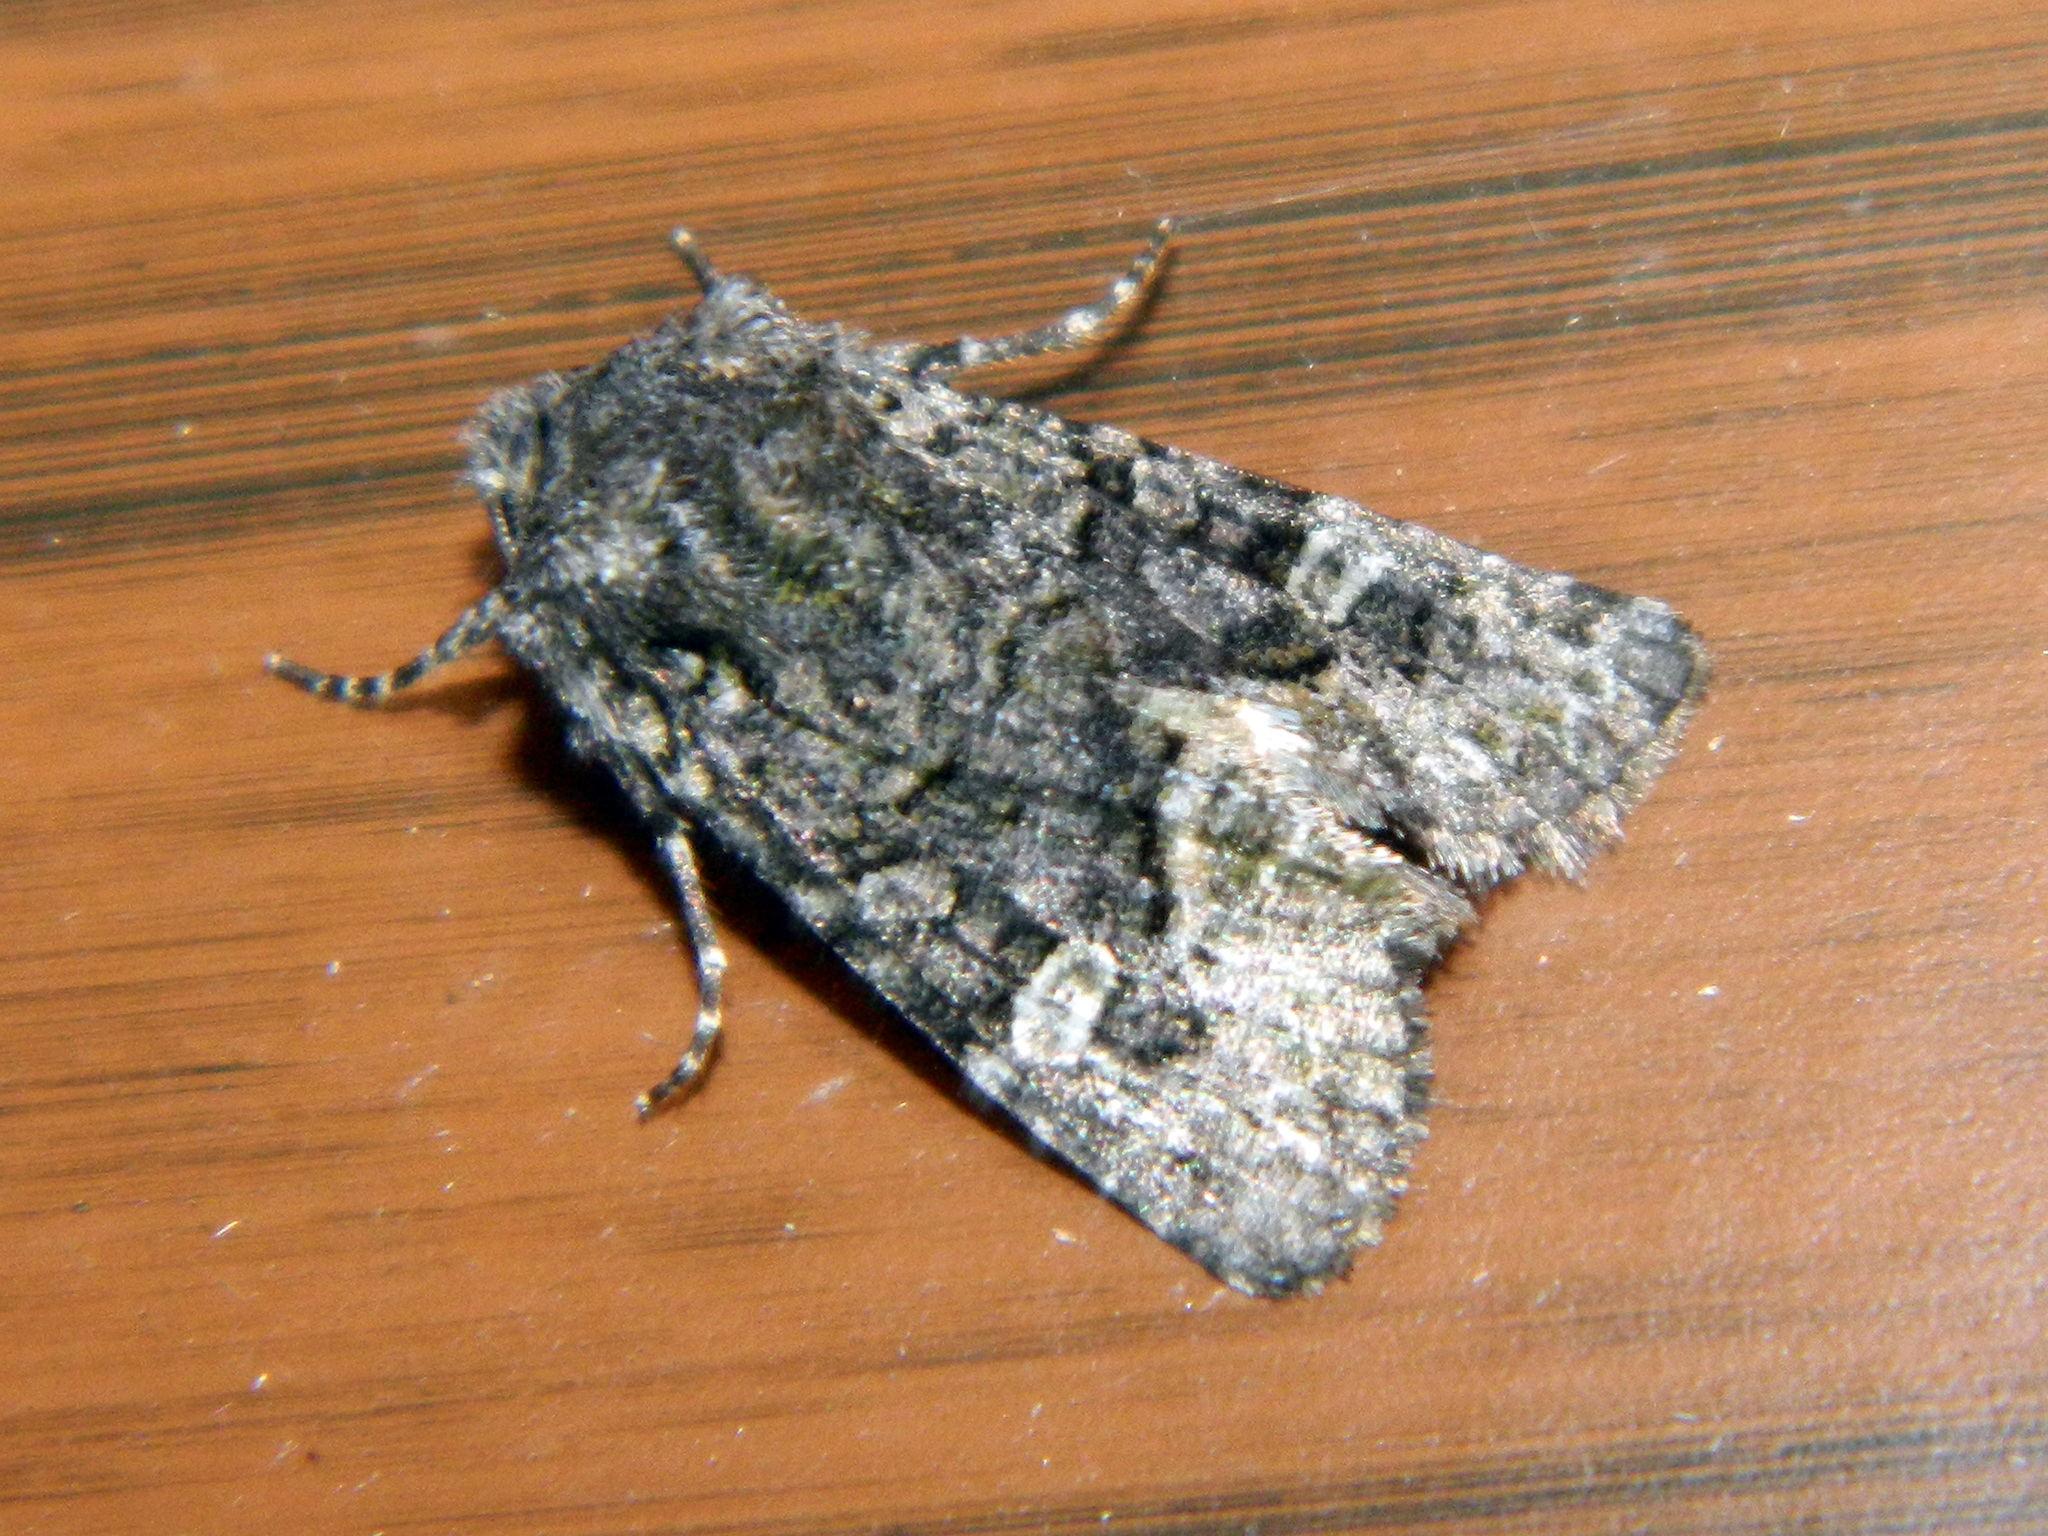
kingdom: Animalia
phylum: Arthropoda
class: Insecta
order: Lepidoptera
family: Noctuidae
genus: Lacinipolia
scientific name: Lacinipolia olivacea
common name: Olive arches moth
